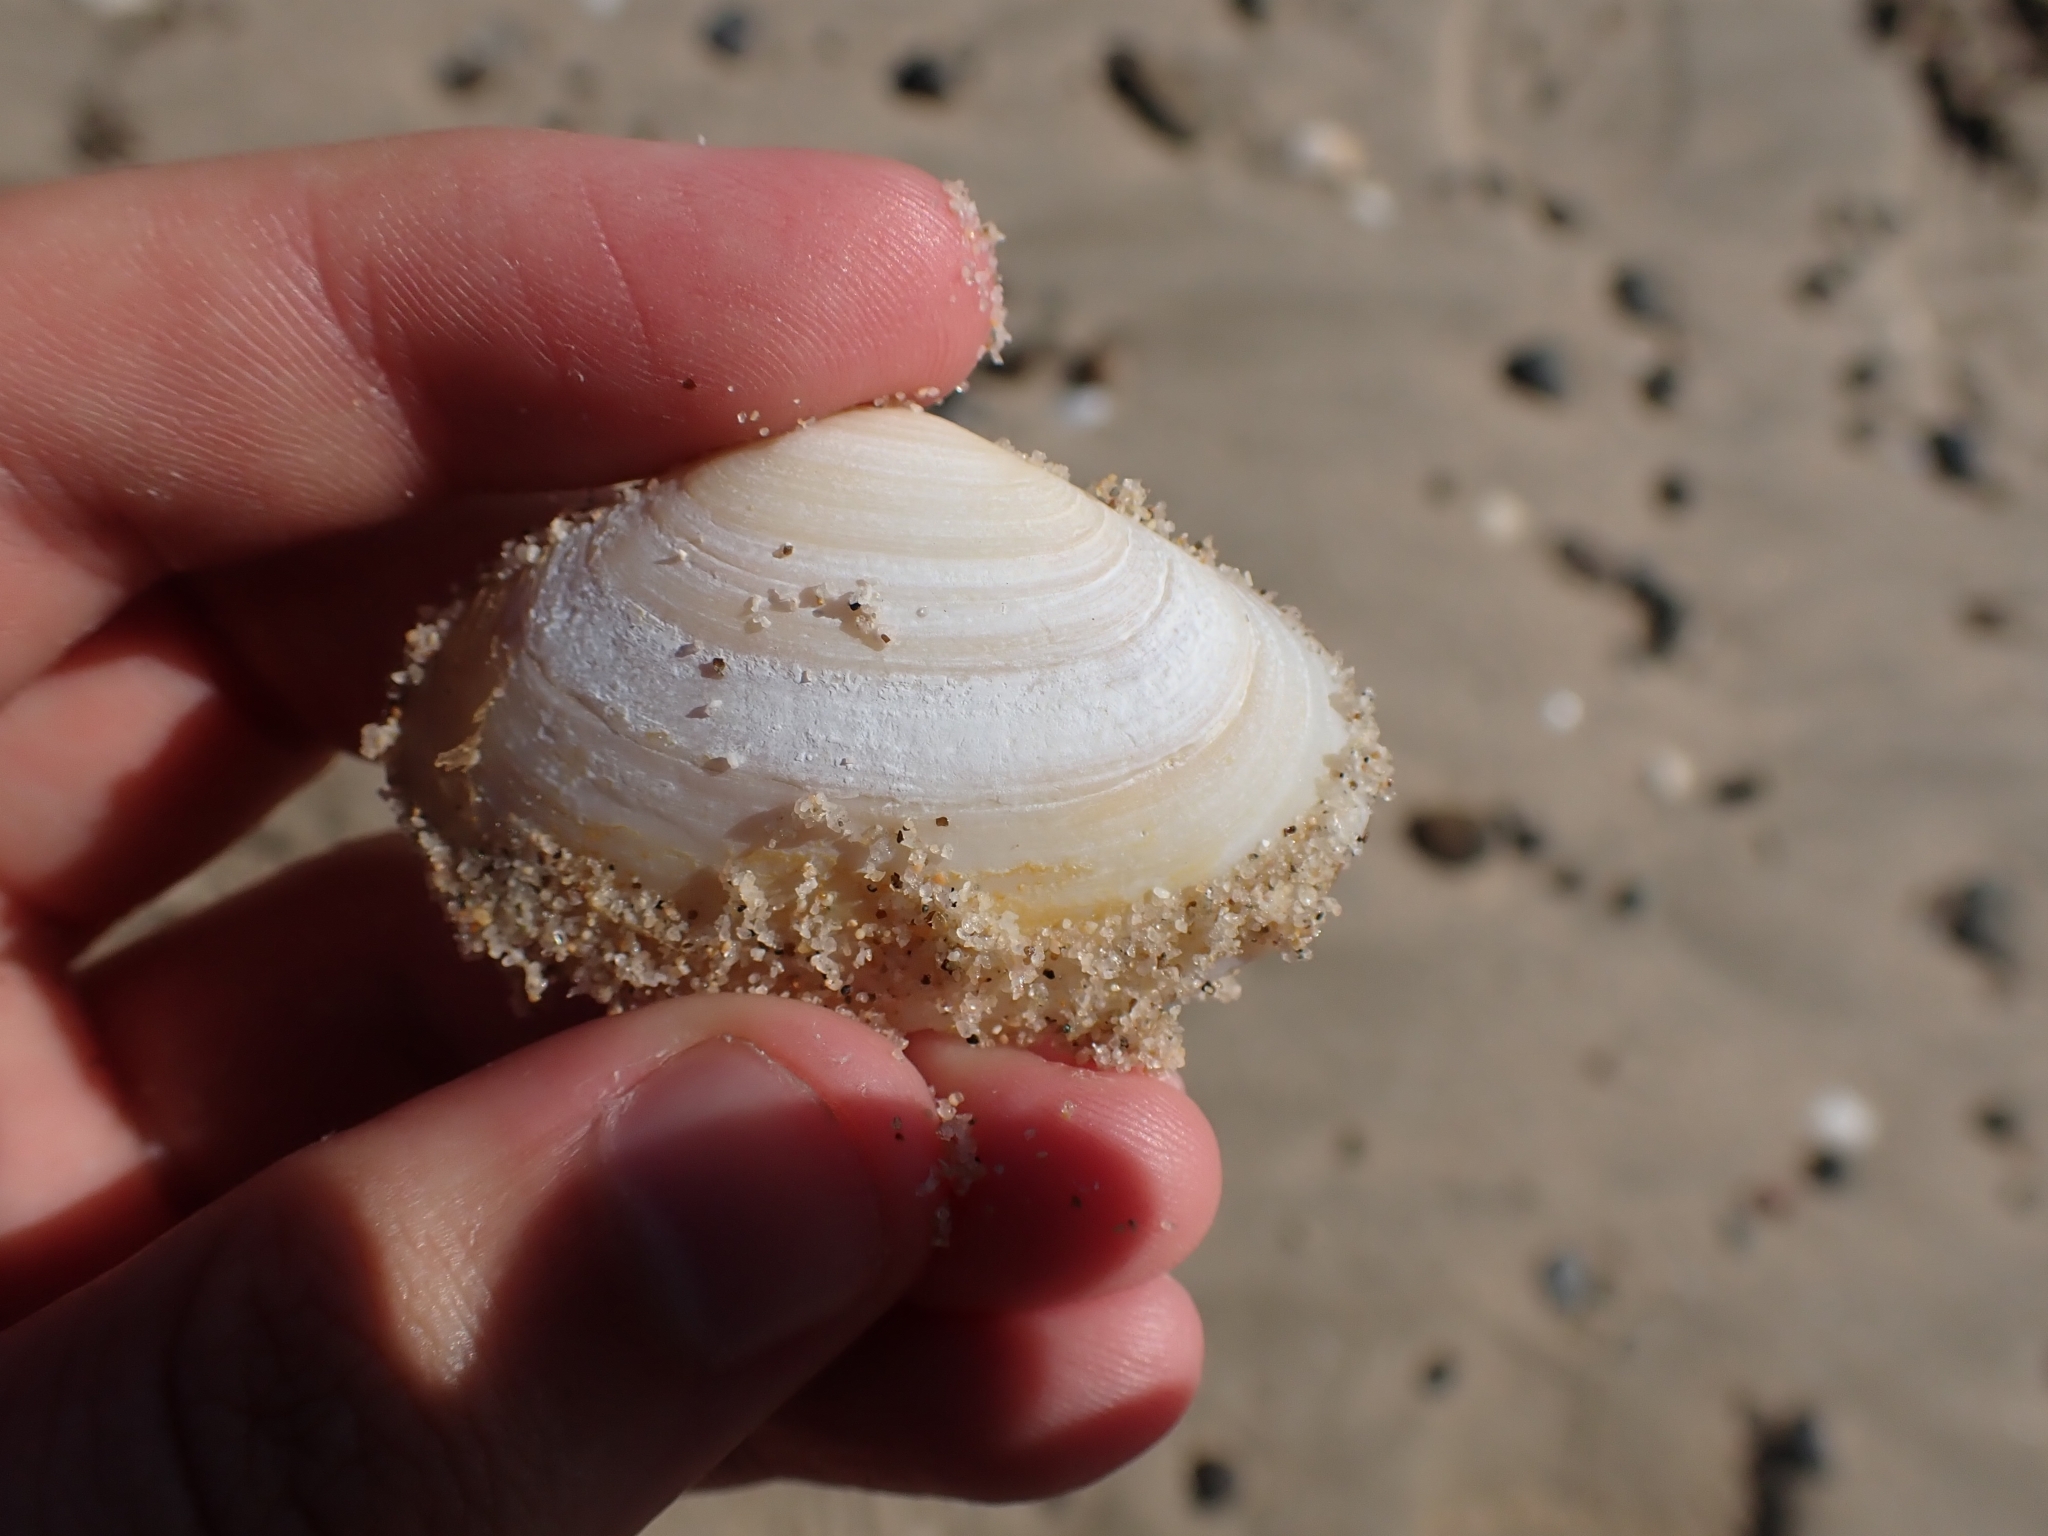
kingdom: Animalia
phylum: Mollusca
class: Bivalvia
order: Venerida
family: Mesodesmatidae
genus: Paphies
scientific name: Paphies australis
